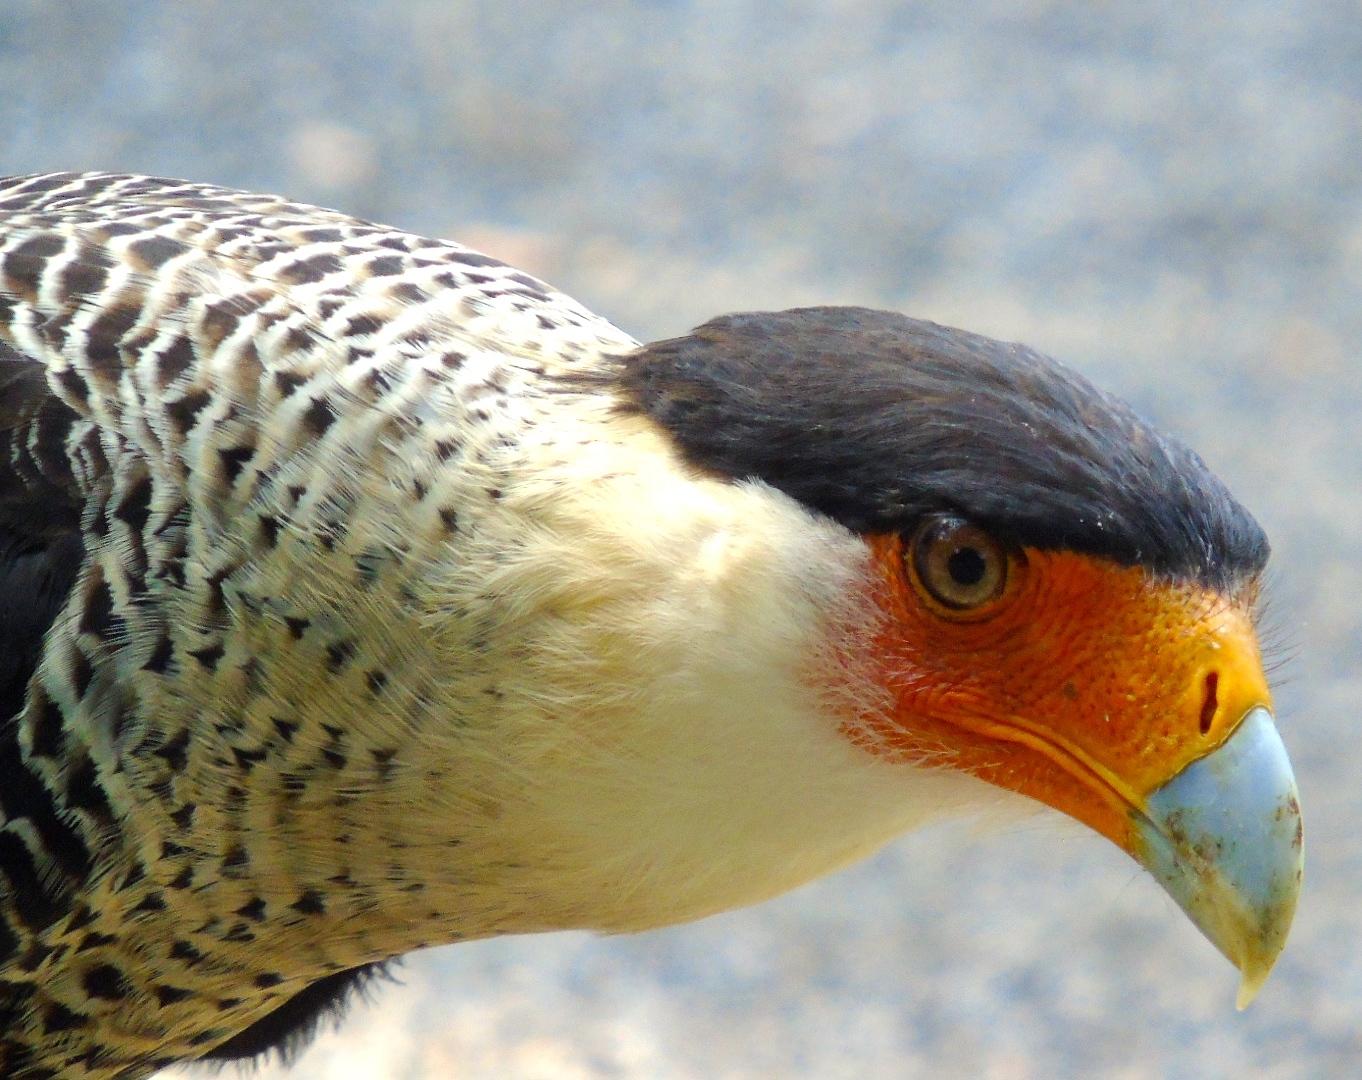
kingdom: Animalia
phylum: Chordata
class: Aves
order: Falconiformes
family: Falconidae
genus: Caracara
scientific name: Caracara plancus
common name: Southern caracara
